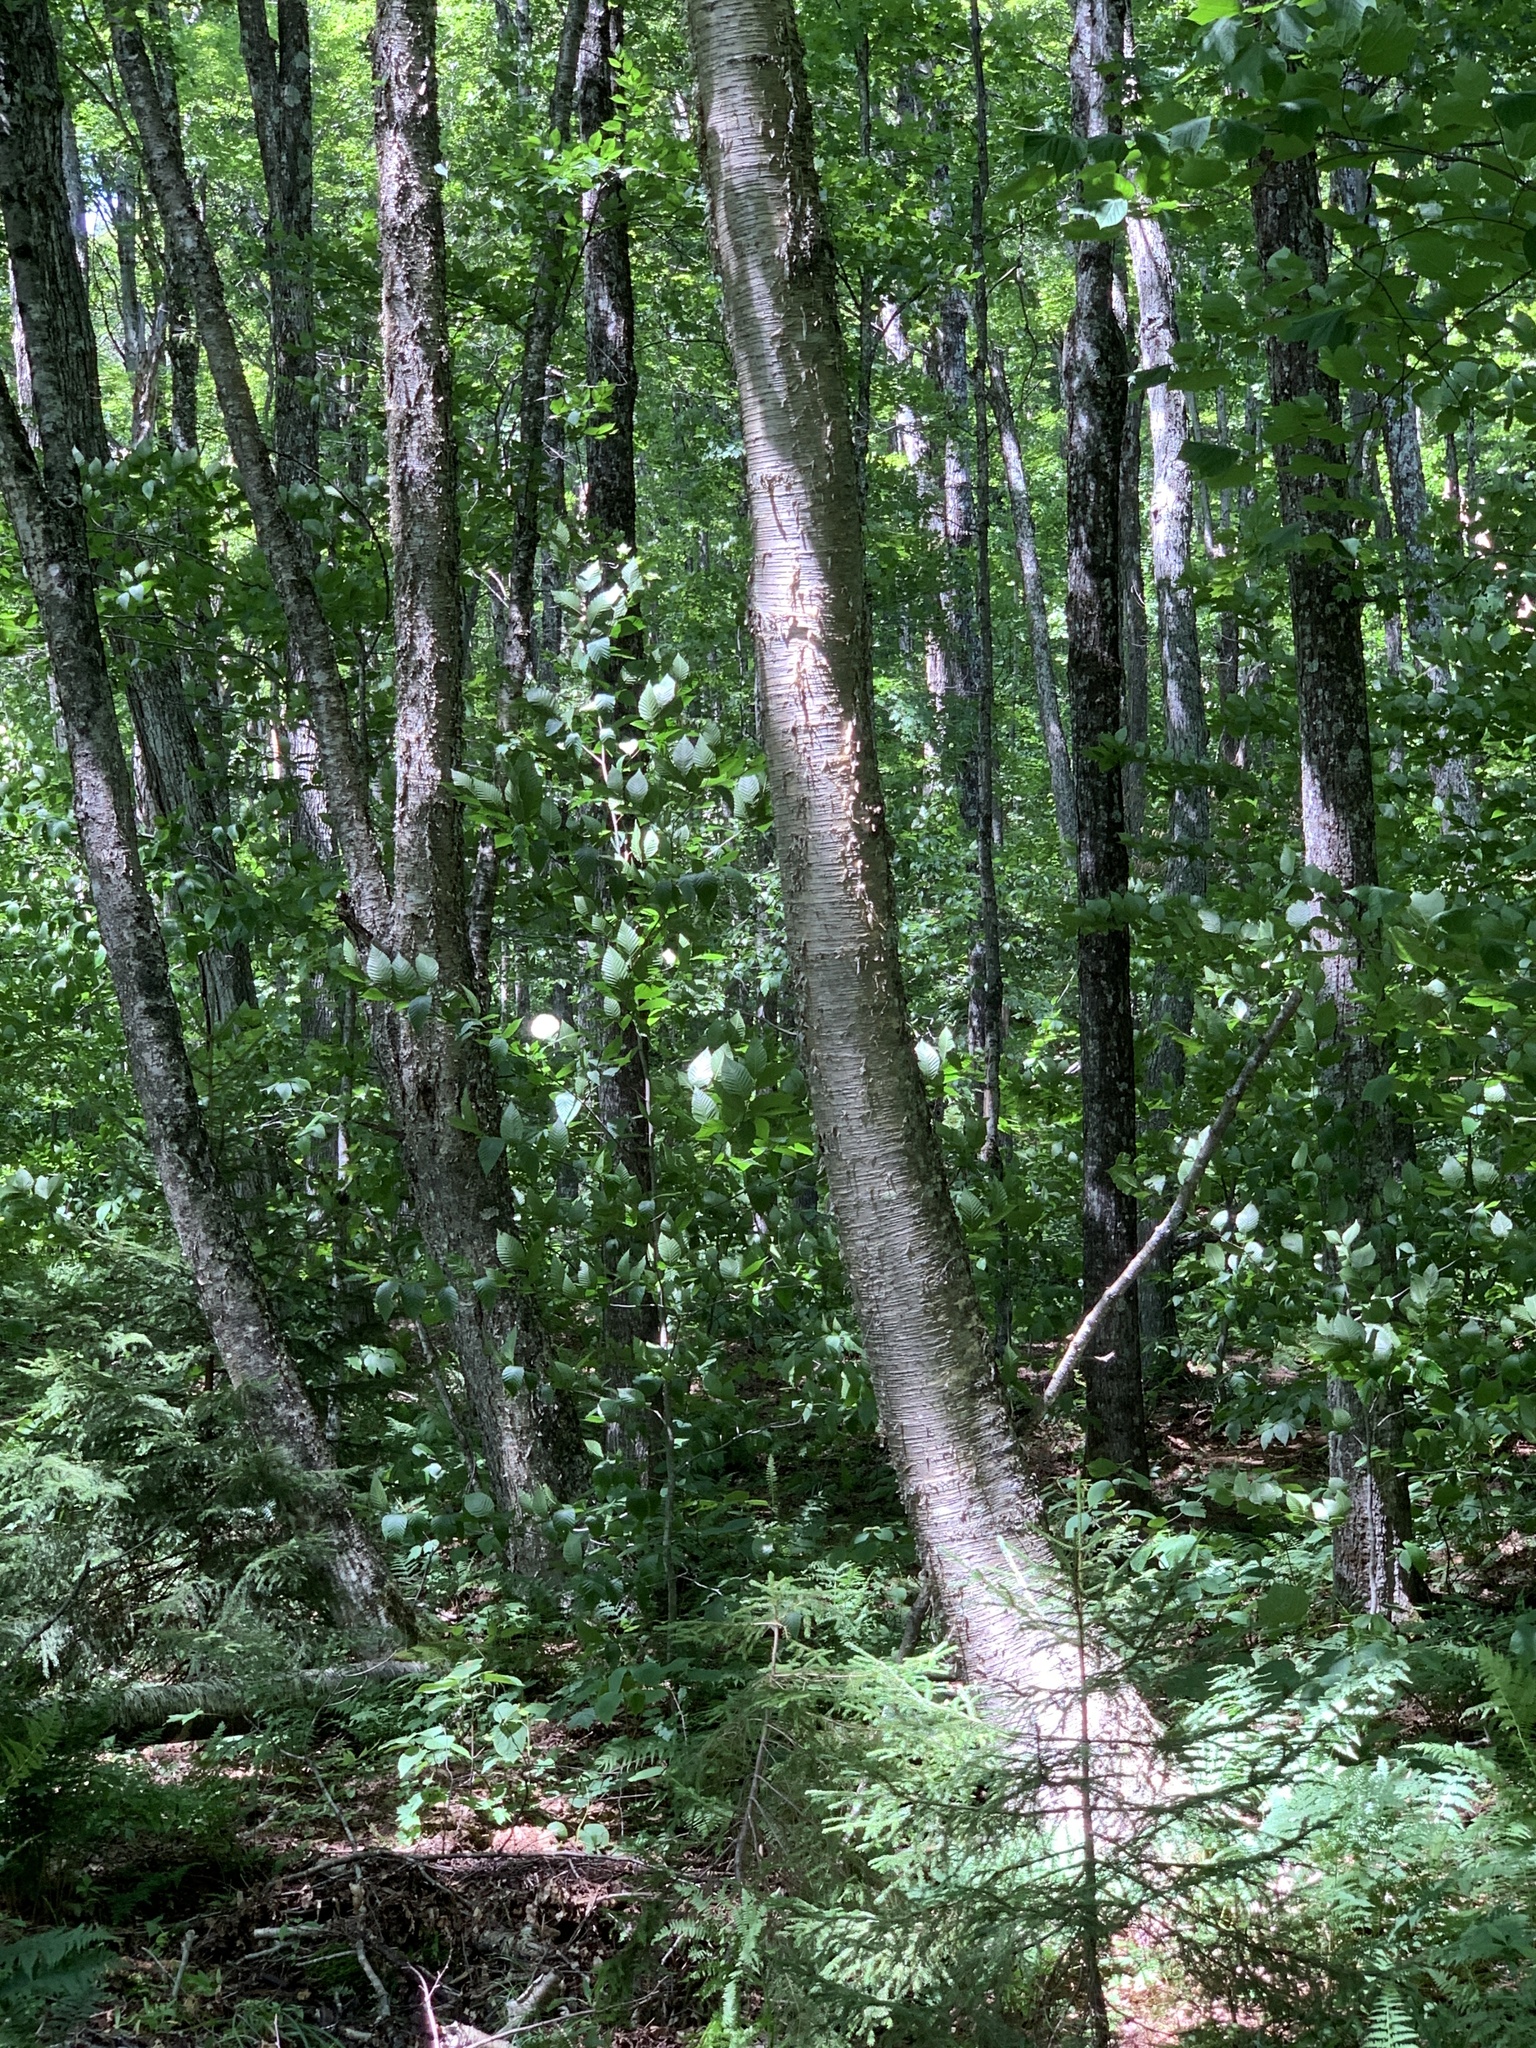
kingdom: Plantae
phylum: Tracheophyta
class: Magnoliopsida
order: Fagales
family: Betulaceae
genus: Betula
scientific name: Betula alleghaniensis
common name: Yellow birch
